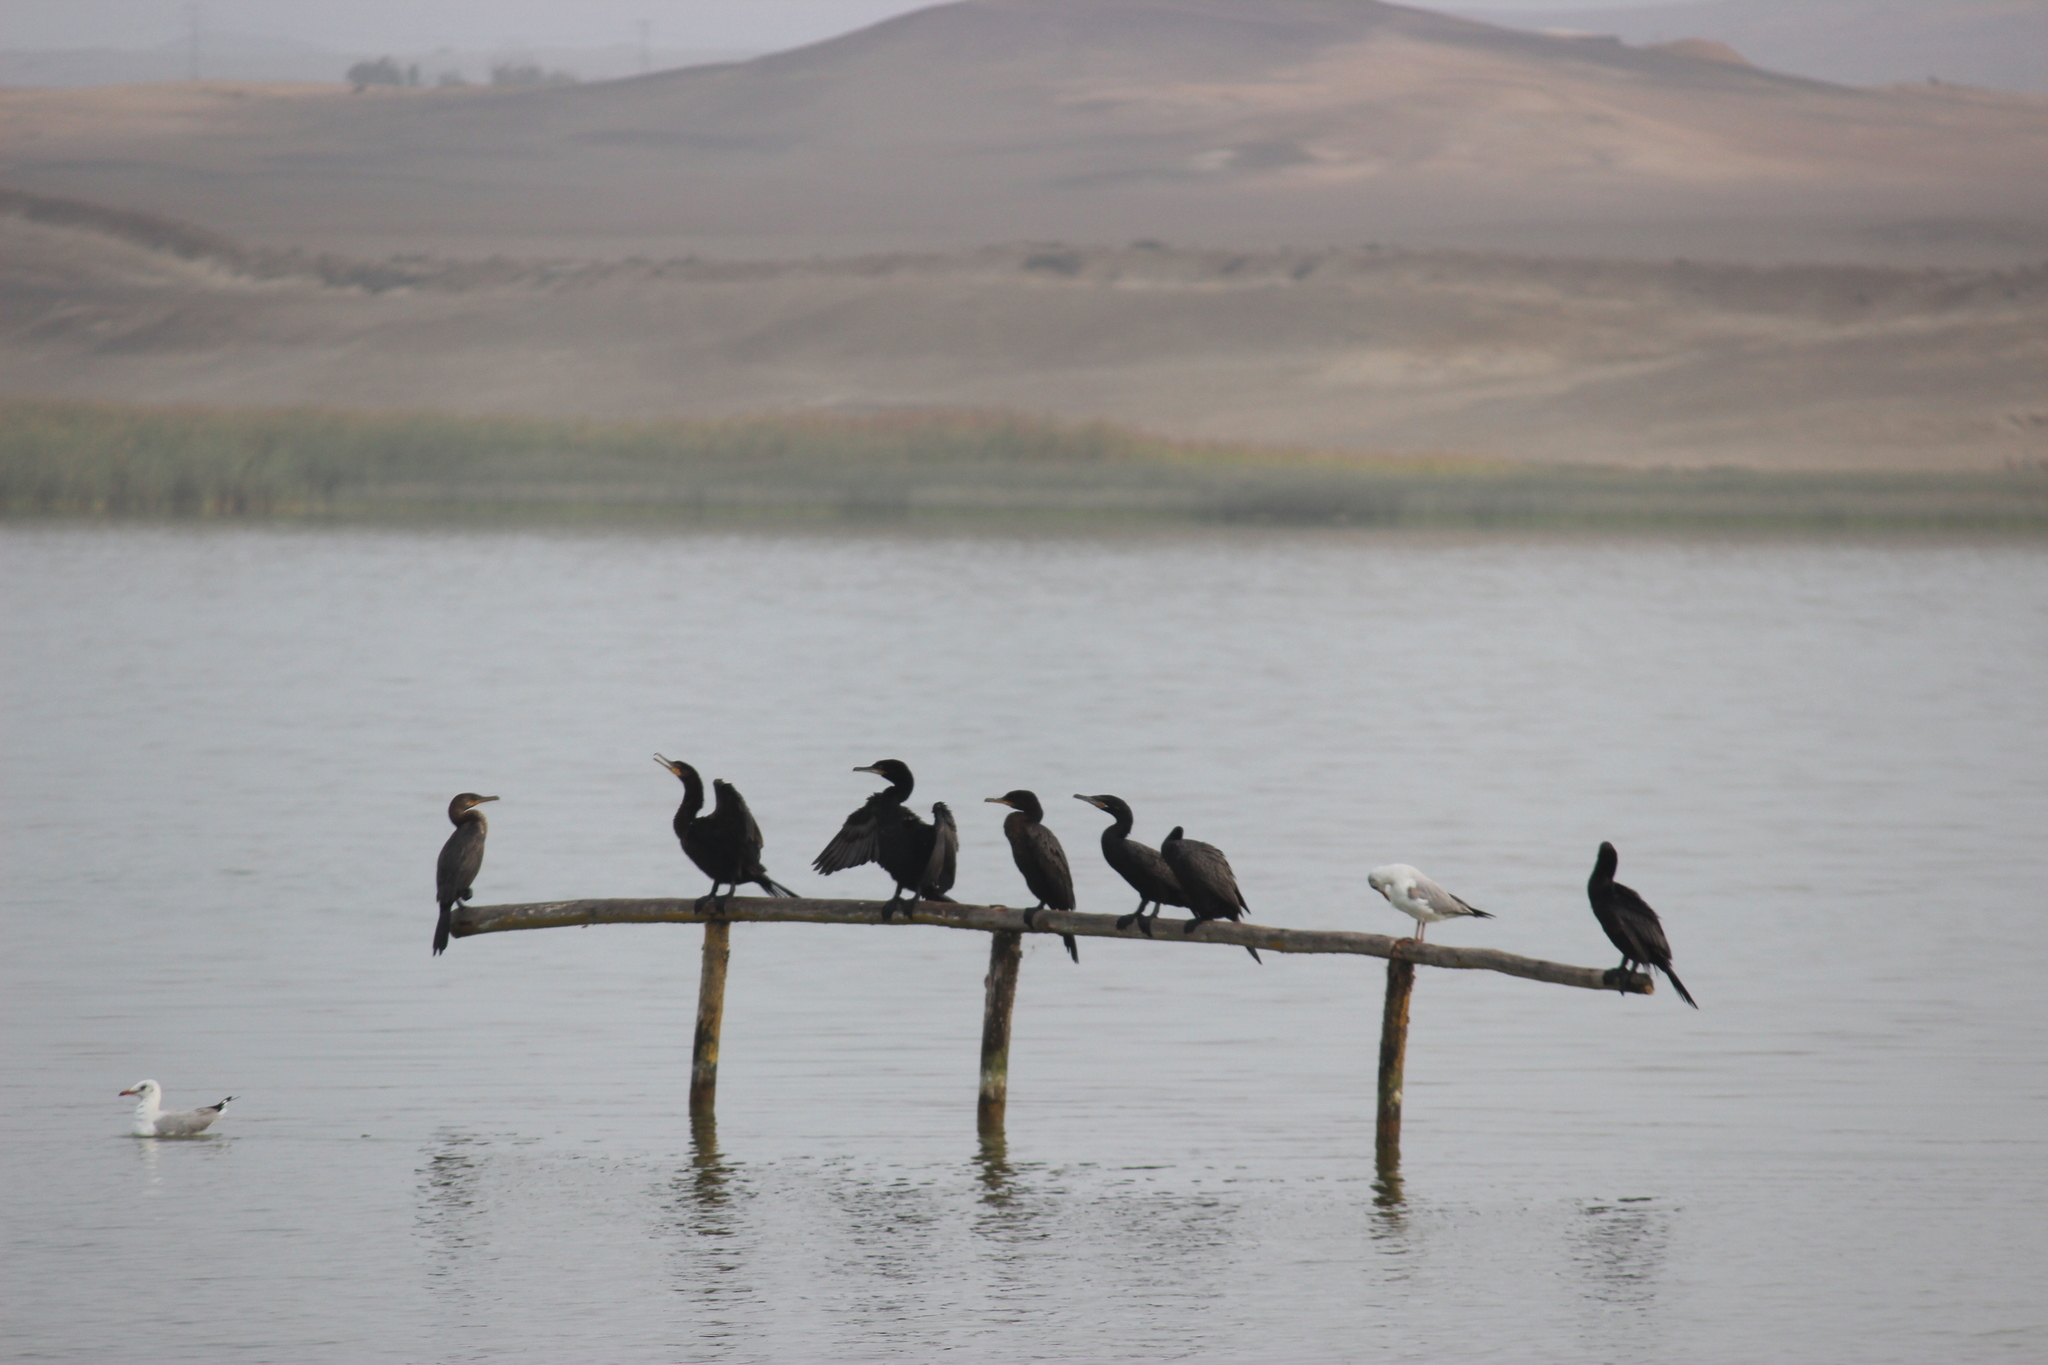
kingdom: Animalia
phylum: Chordata
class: Aves
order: Suliformes
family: Phalacrocoracidae
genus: Phalacrocorax
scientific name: Phalacrocorax brasilianus
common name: Neotropic cormorant
